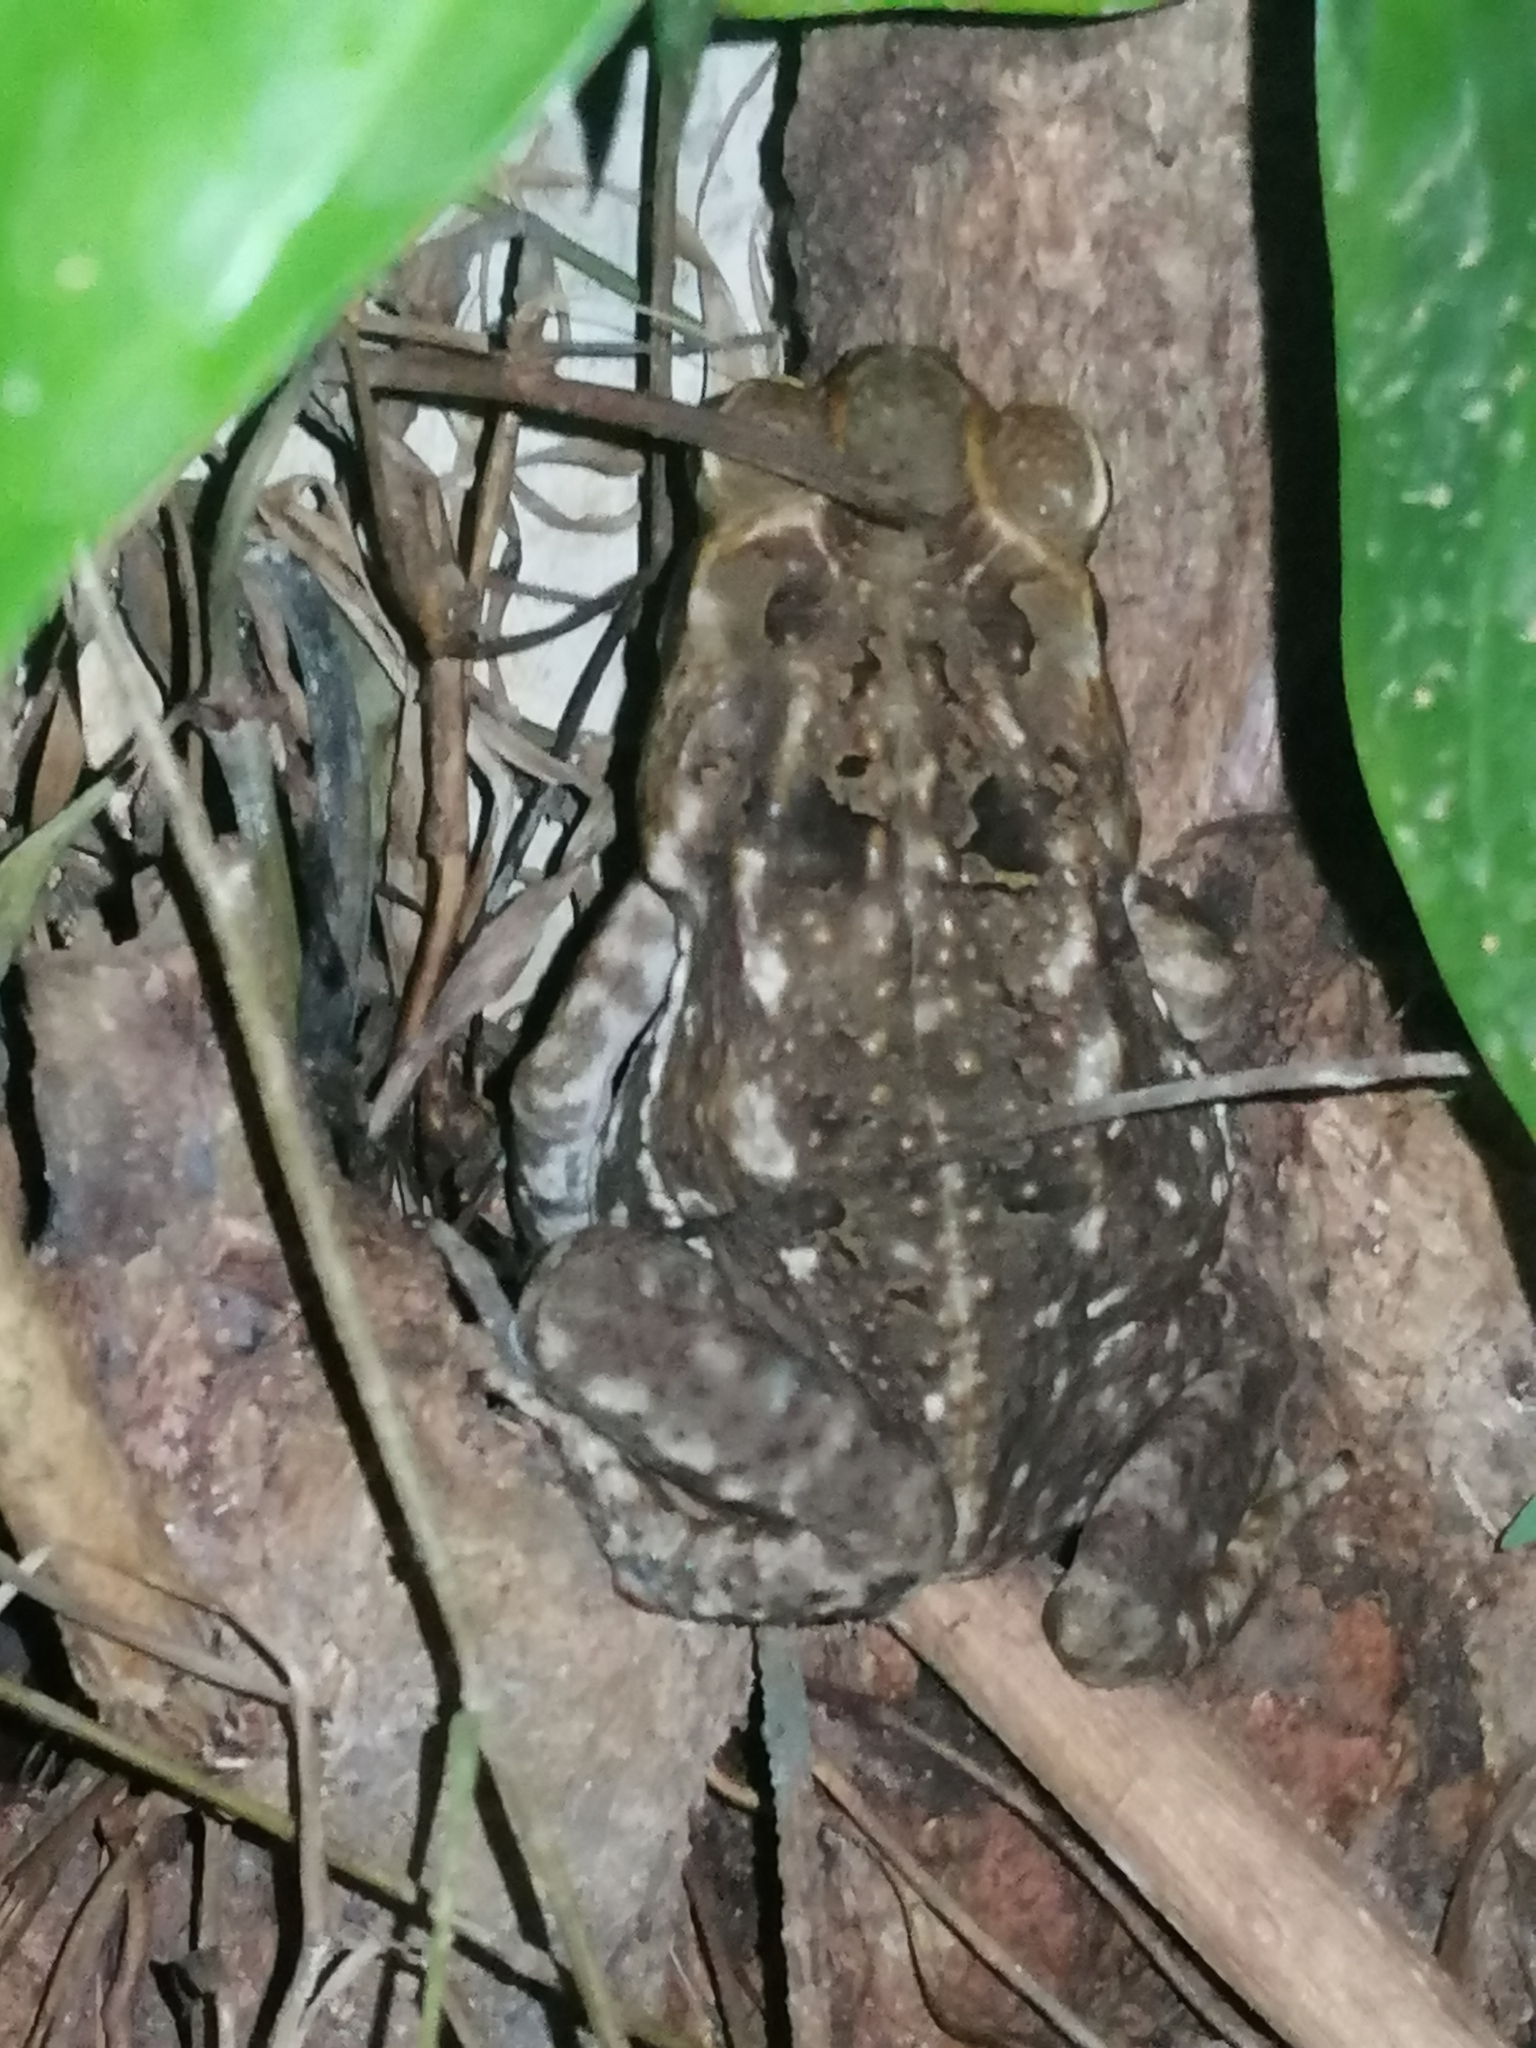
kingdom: Animalia
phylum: Chordata
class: Amphibia
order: Anura
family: Bufonidae
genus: Rhinella
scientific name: Rhinella horribilis
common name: Mesoamerican cane toad
